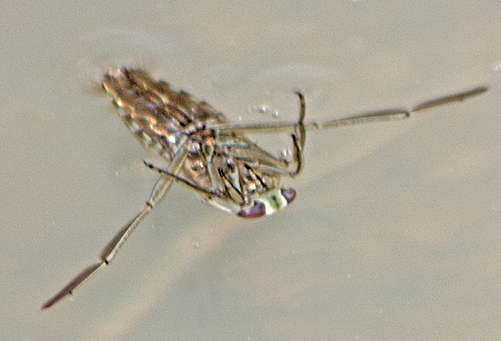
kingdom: Animalia
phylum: Arthropoda
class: Insecta
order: Hemiptera
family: Notonectidae
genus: Notonecta
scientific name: Notonecta
